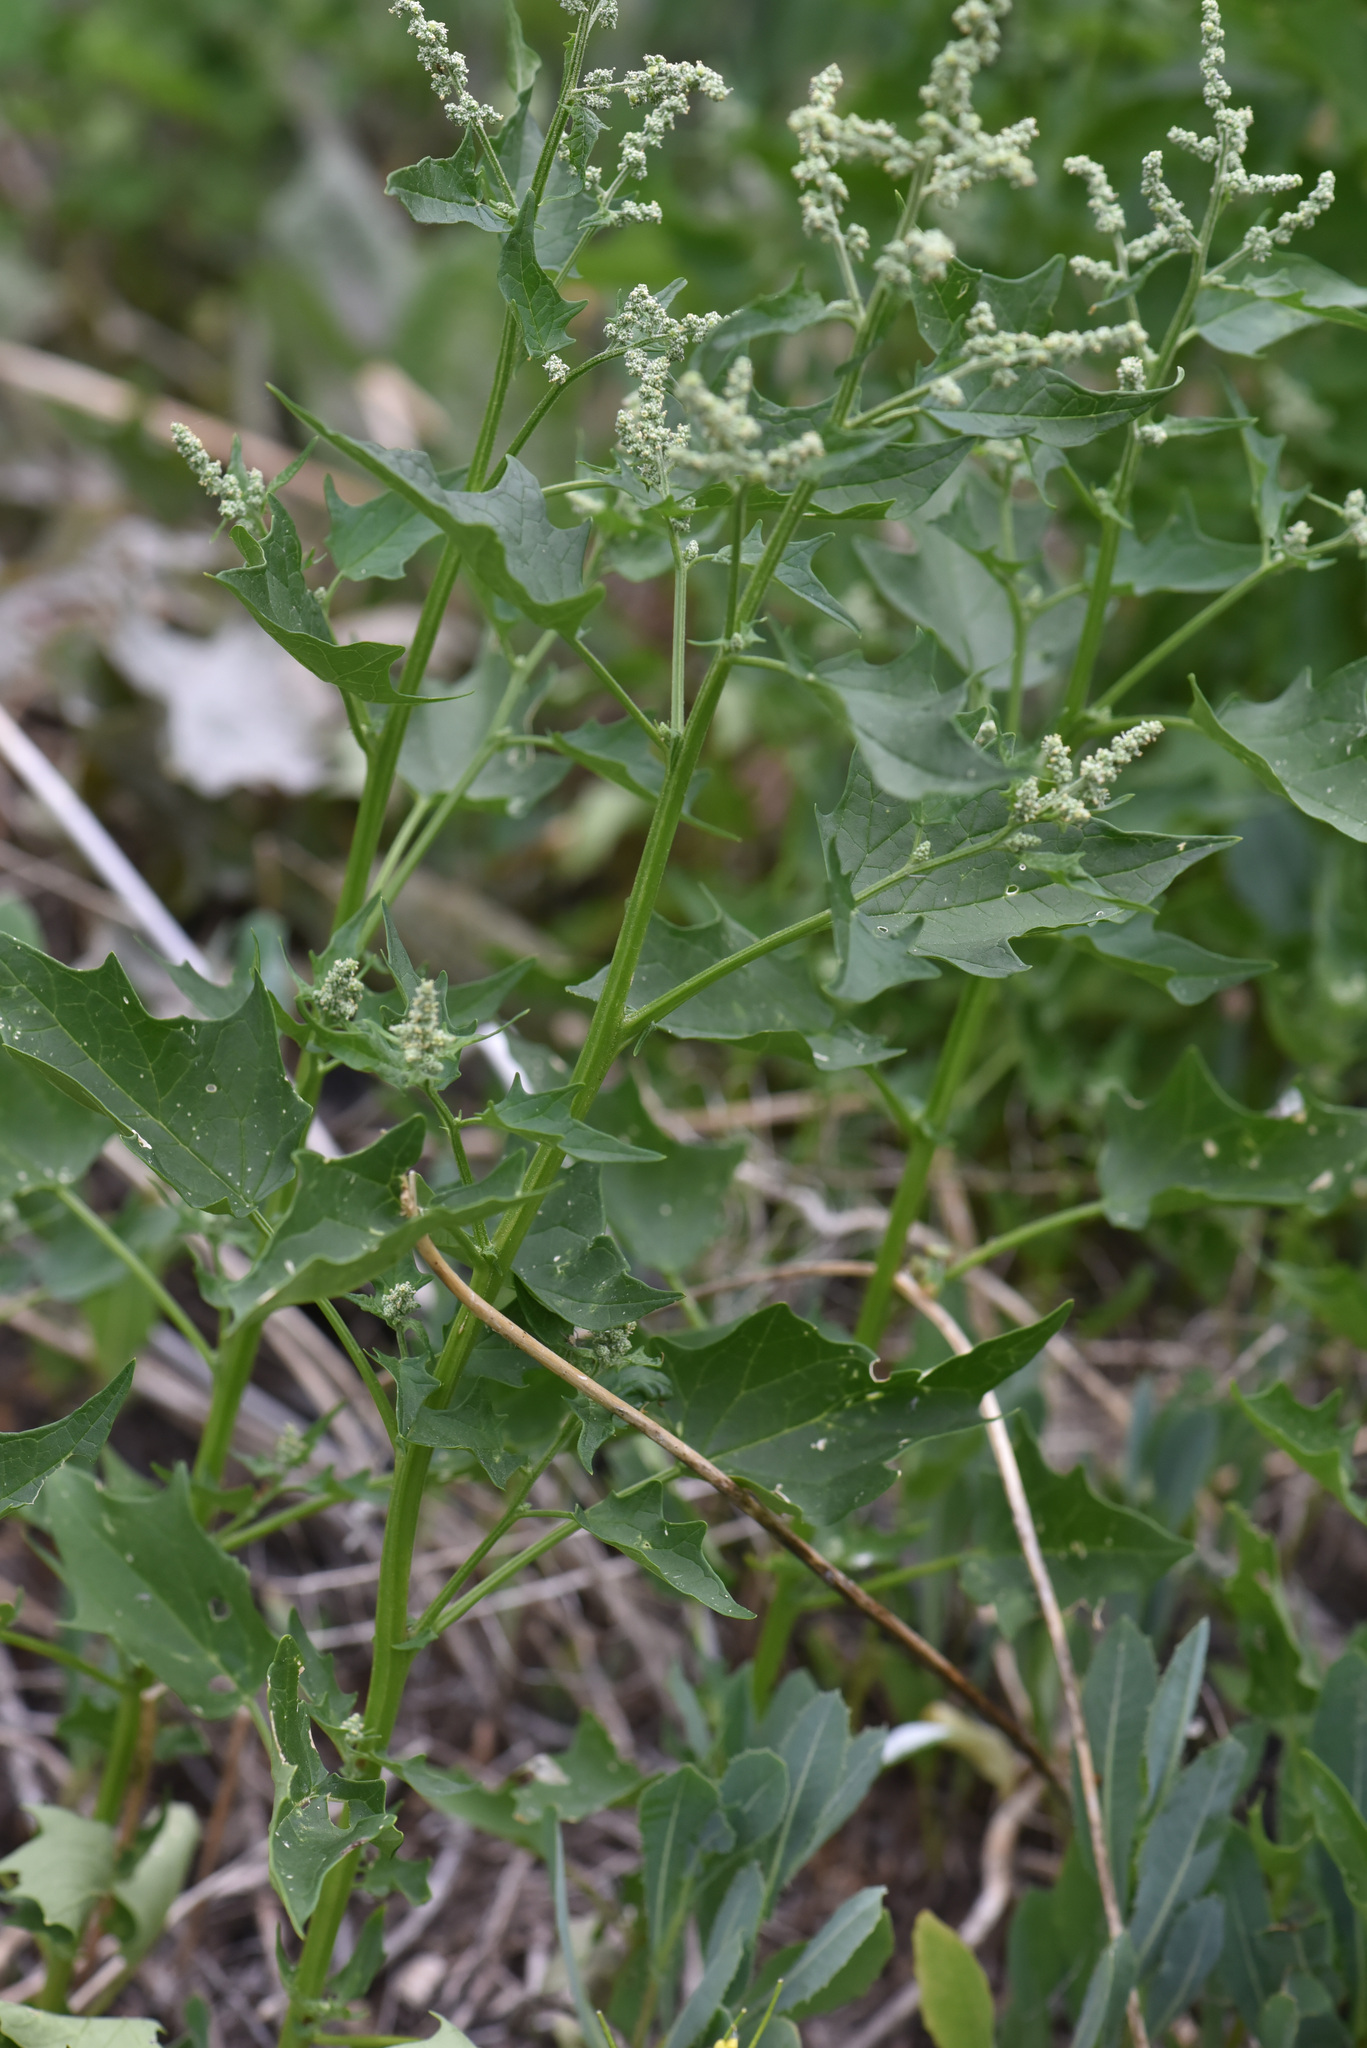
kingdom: Plantae
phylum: Tracheophyta
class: Magnoliopsida
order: Caryophyllales
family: Amaranthaceae
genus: Chenopodiastrum
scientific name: Chenopodiastrum hybridum
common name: Mapleleaf goosefoot
